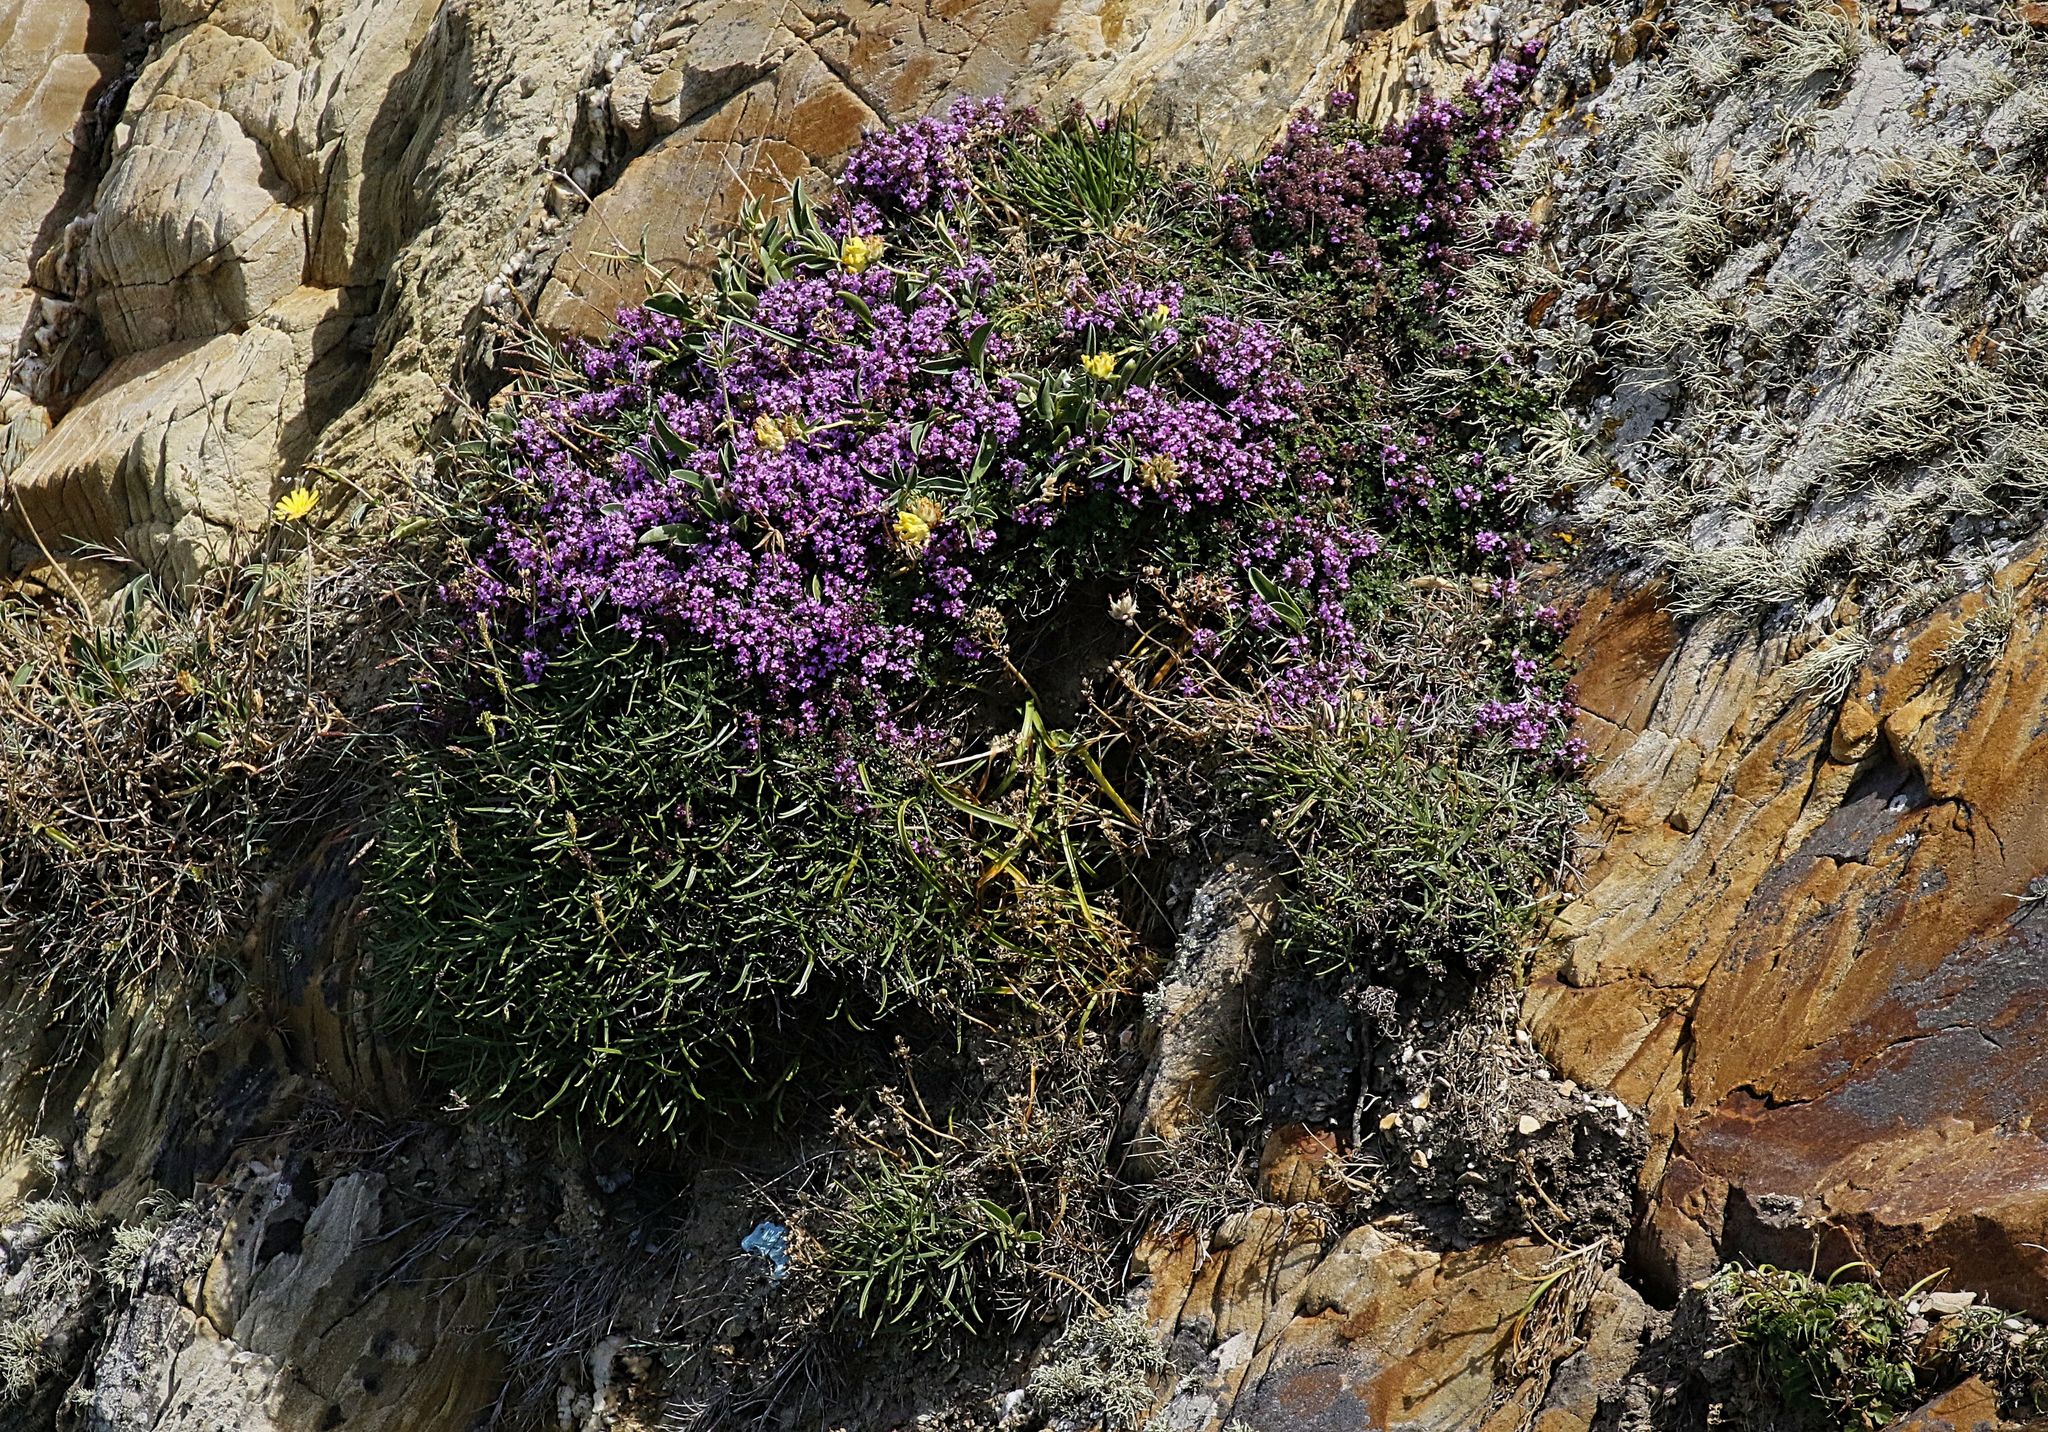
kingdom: Plantae
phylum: Tracheophyta
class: Magnoliopsida
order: Lamiales
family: Lamiaceae
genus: Thymus
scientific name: Thymus praecox
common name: Wild thyme
